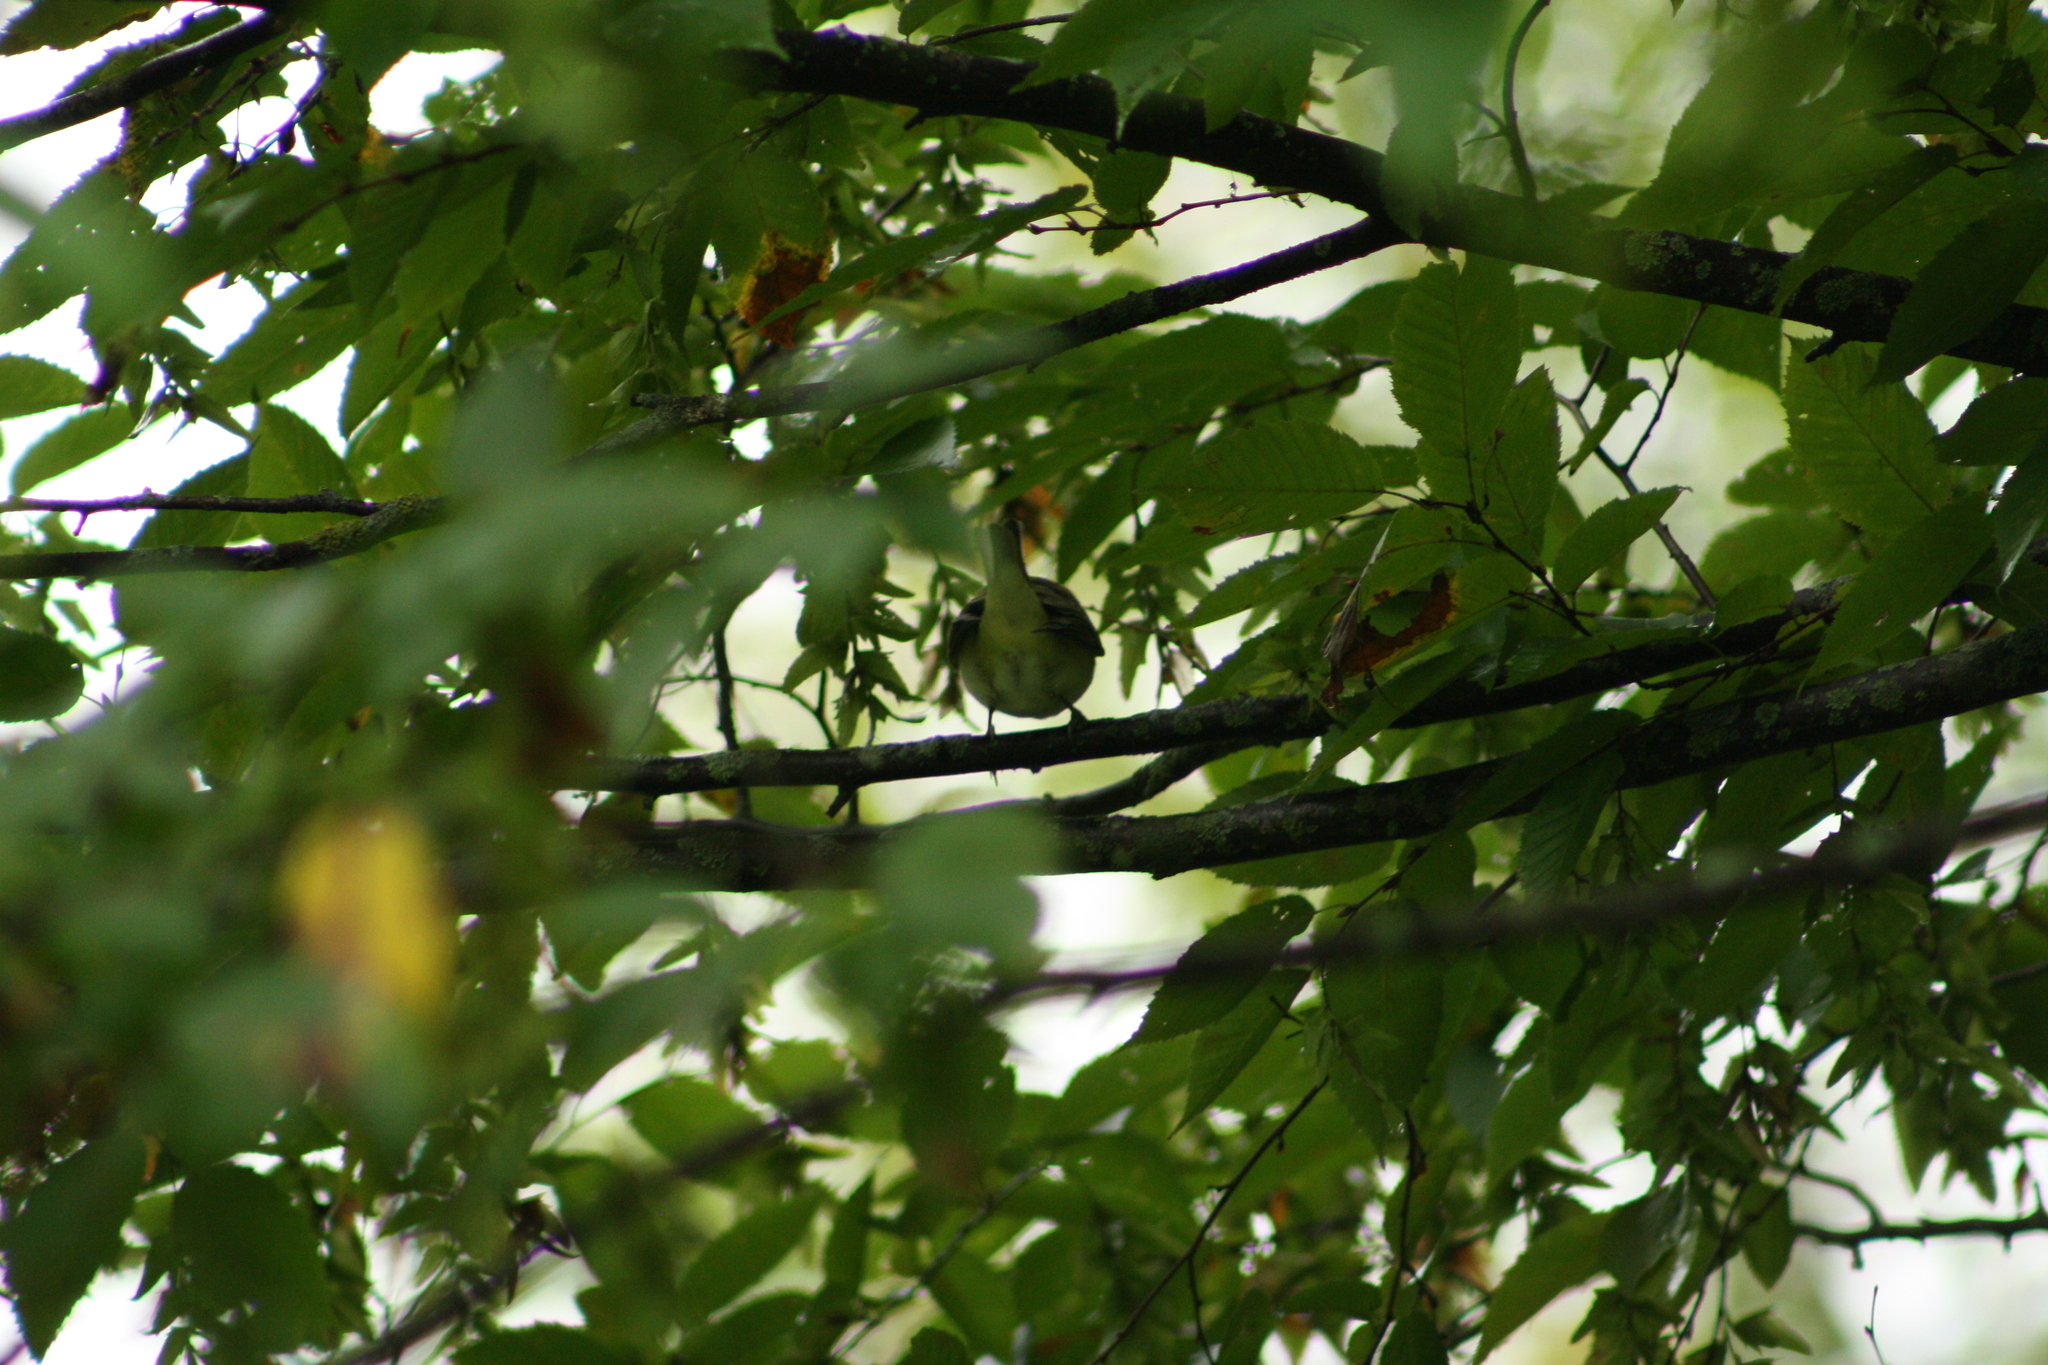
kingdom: Animalia
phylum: Chordata
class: Aves
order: Passeriformes
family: Vireonidae
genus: Vireo
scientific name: Vireo olivaceus
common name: Red-eyed vireo
